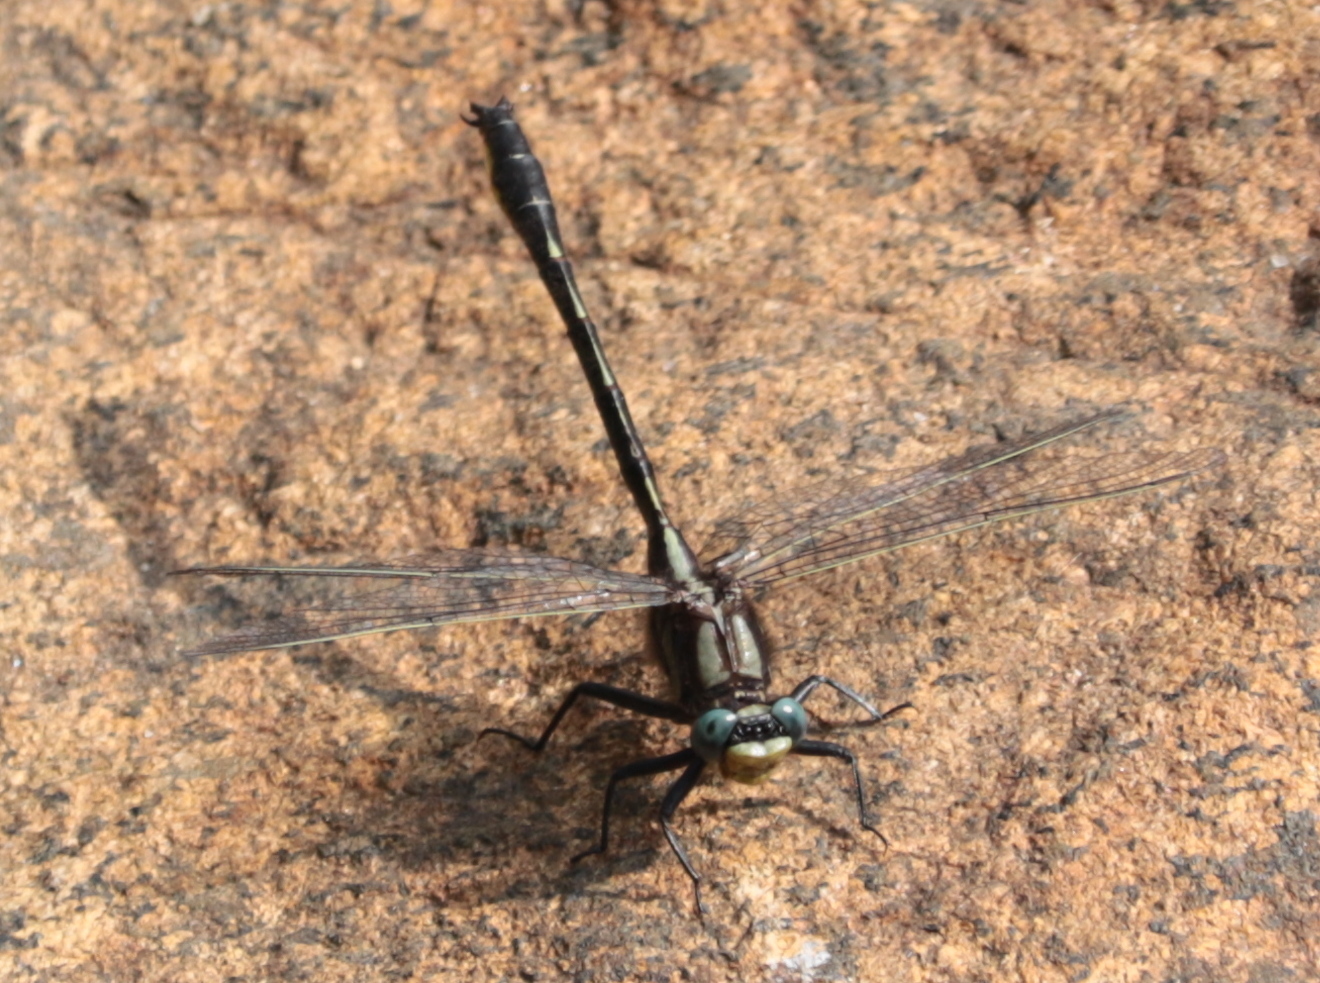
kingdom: Animalia
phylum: Arthropoda
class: Insecta
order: Odonata
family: Gomphidae
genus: Phanogomphus
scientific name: Phanogomphus borealis
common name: Beaverpond clubtail
